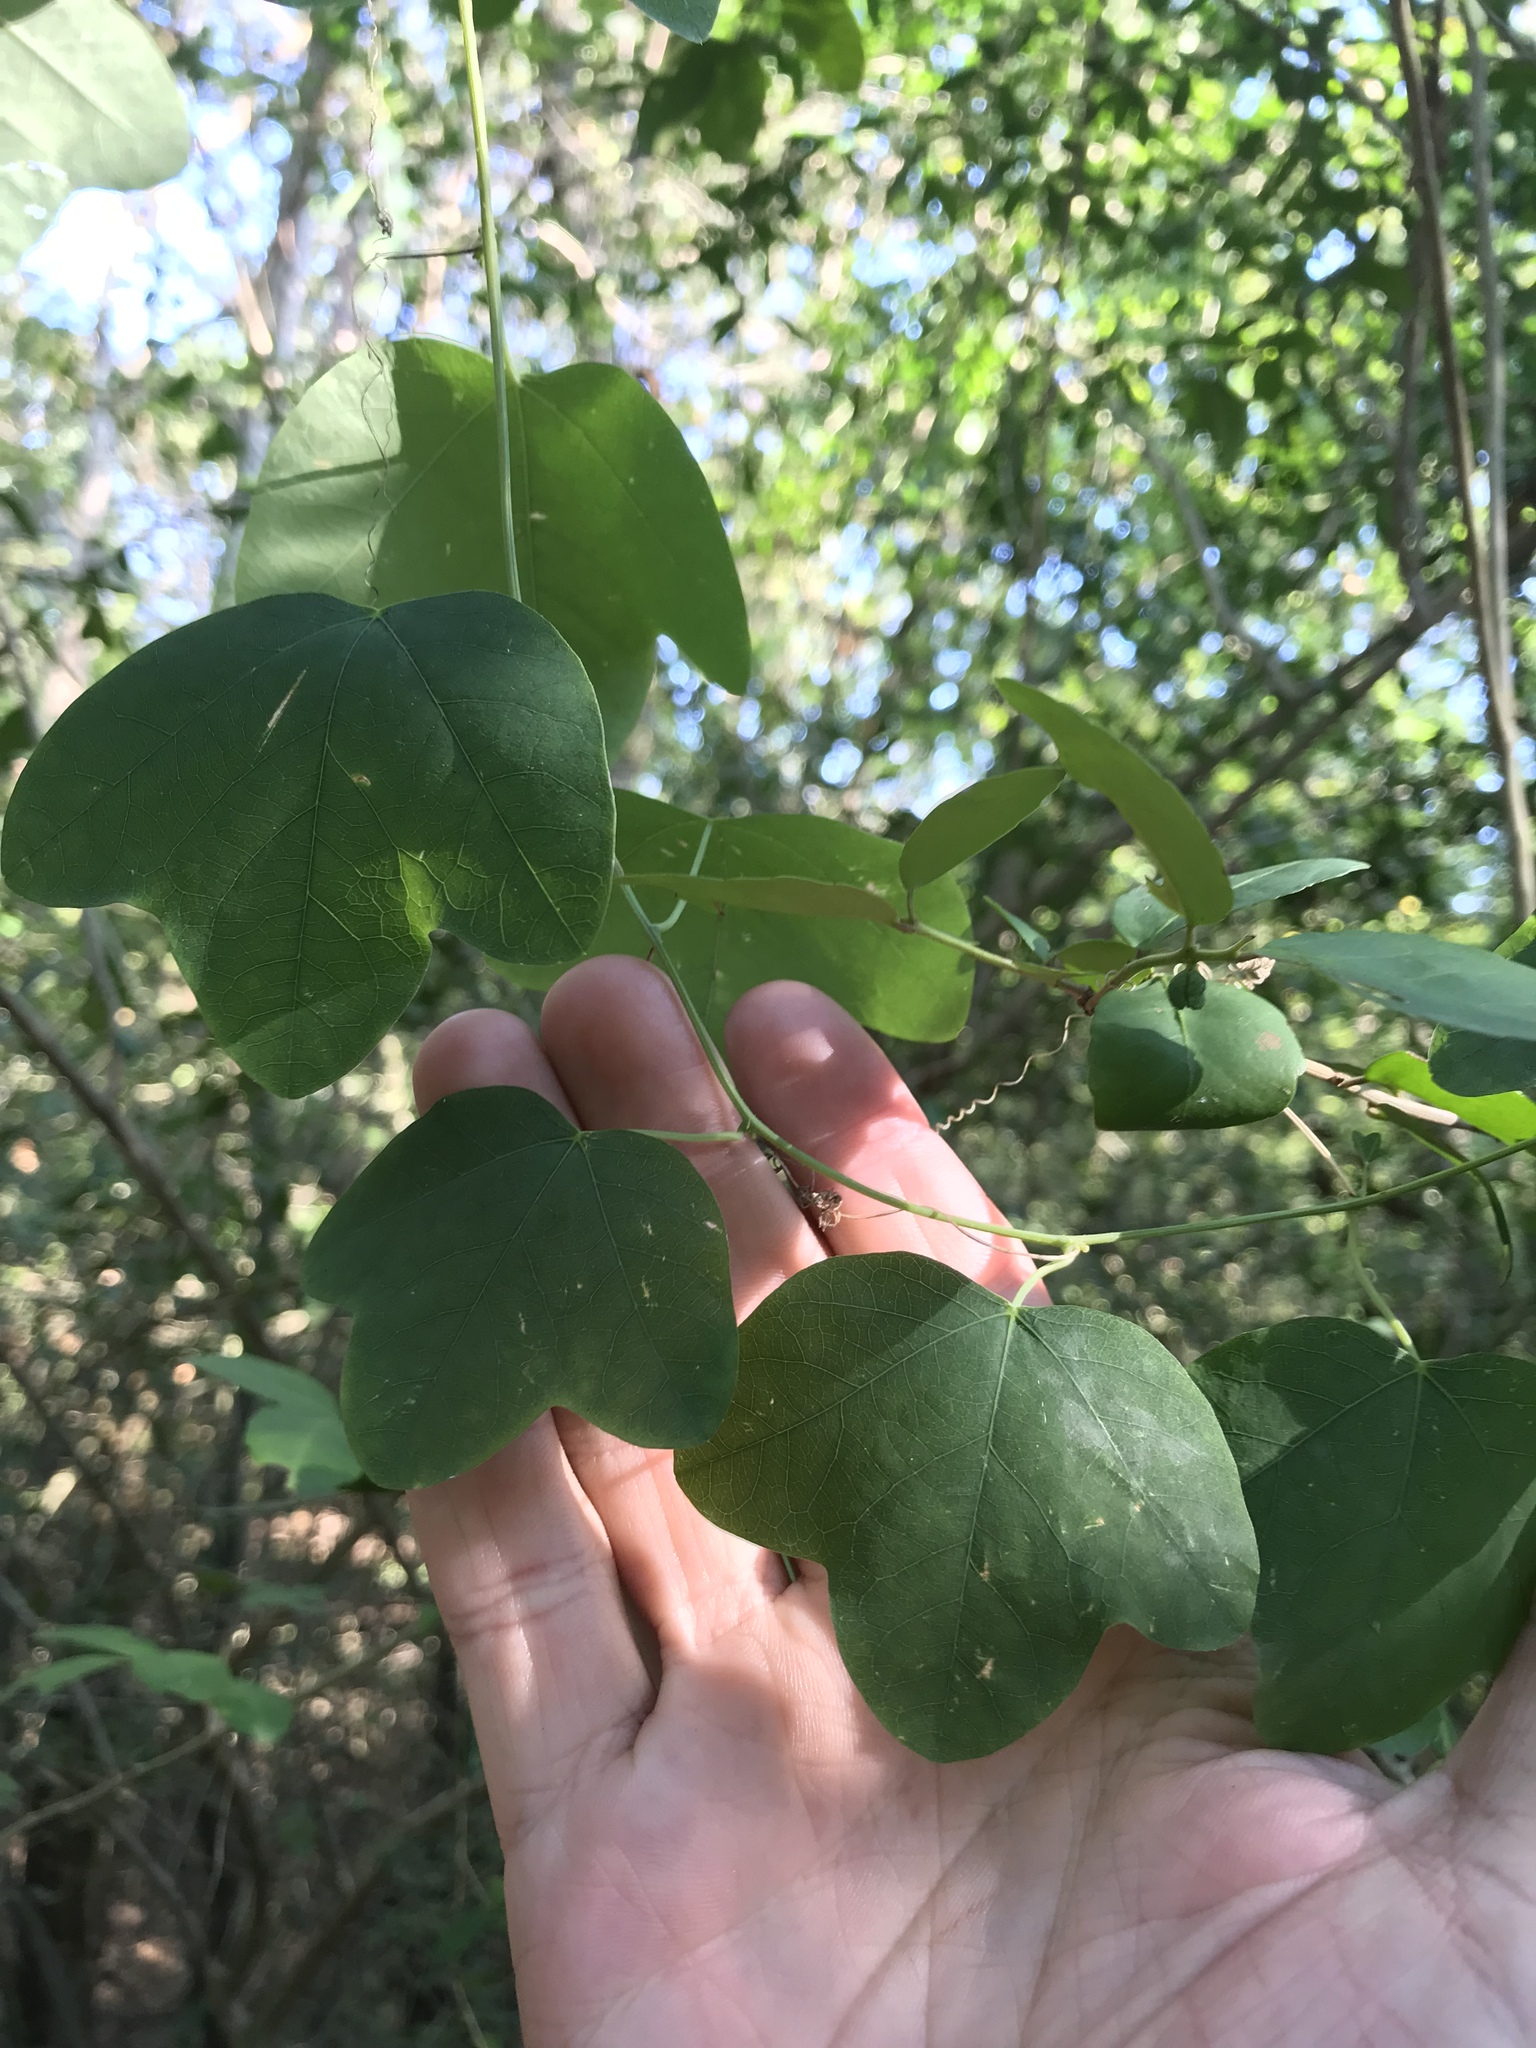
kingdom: Plantae
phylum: Tracheophyta
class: Magnoliopsida
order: Malpighiales
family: Passifloraceae
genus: Passiflora
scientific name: Passiflora lutea
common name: Yellow passionflower
